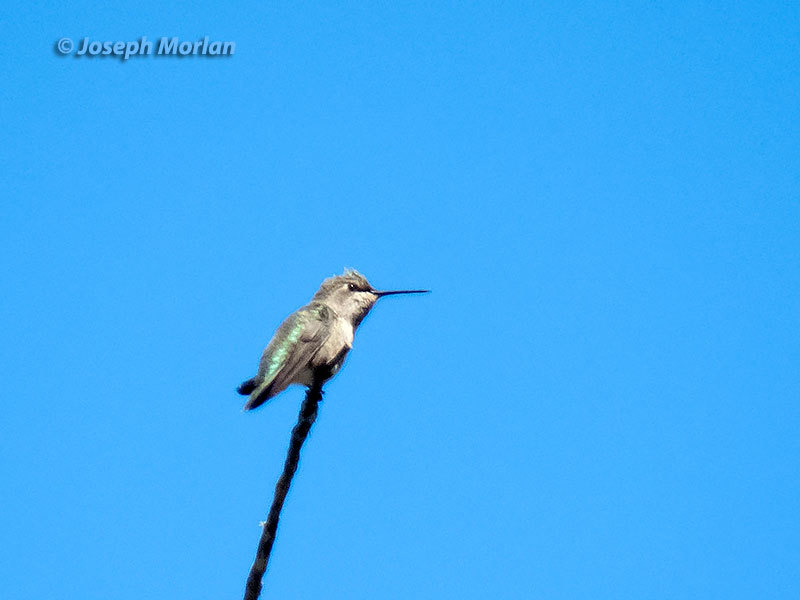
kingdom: Animalia
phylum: Chordata
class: Aves
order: Apodiformes
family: Trochilidae
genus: Calypte
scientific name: Calypte anna
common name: Anna's hummingbird
